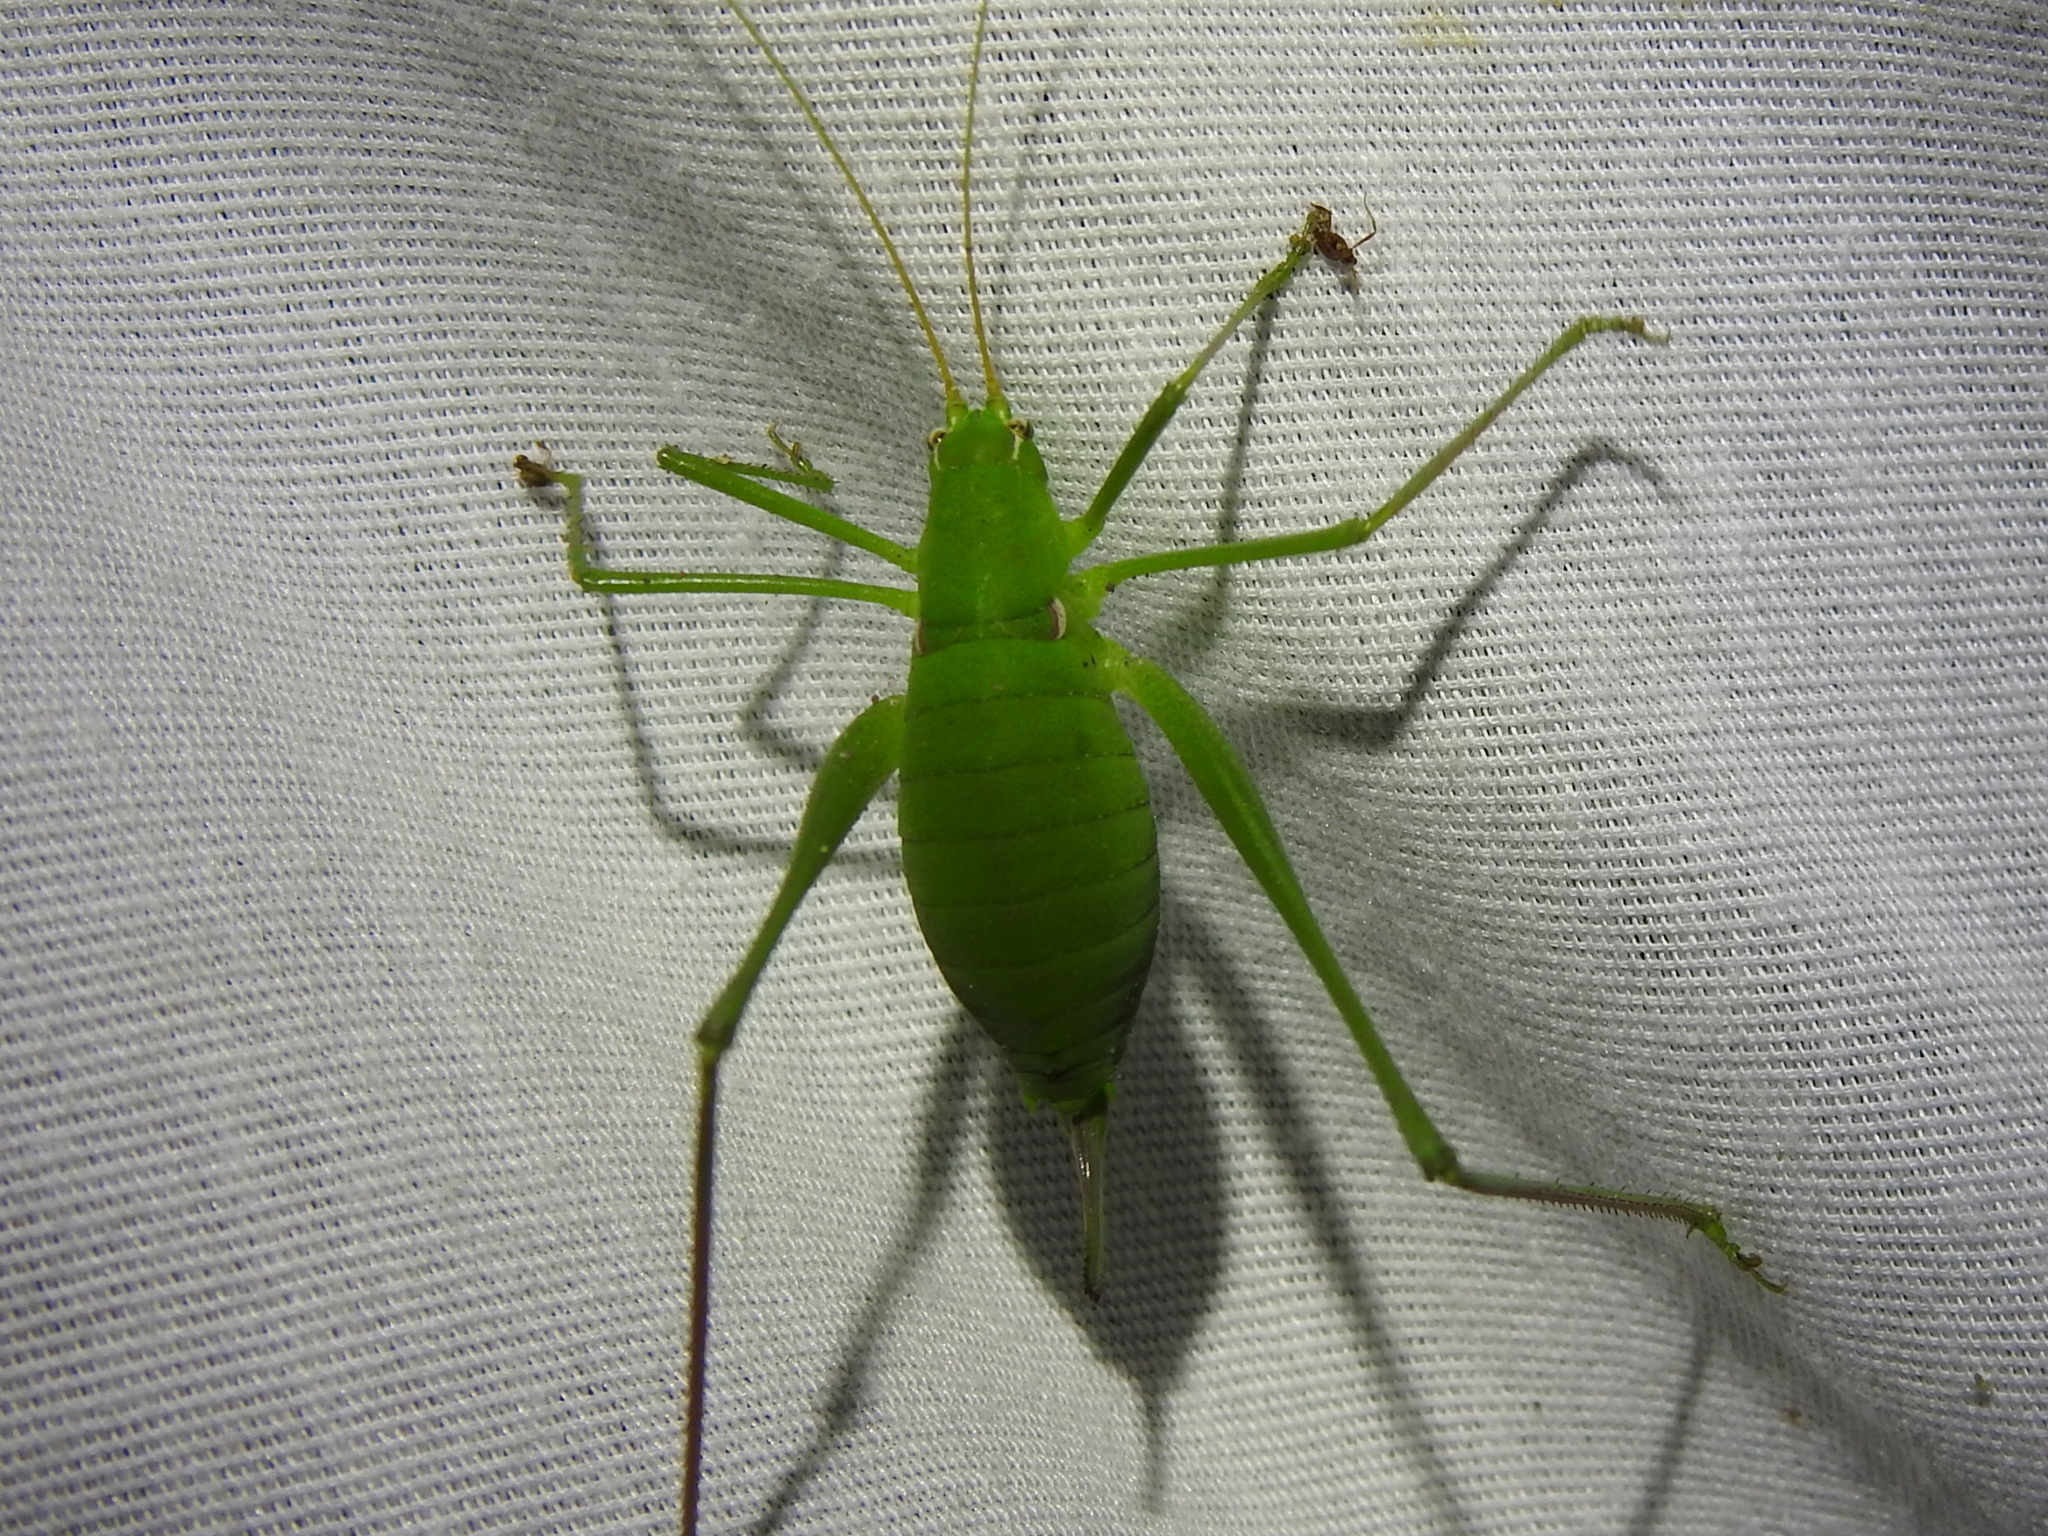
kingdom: Animalia
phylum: Arthropoda
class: Insecta
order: Orthoptera
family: Tettigoniidae
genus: Planipollex
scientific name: Planipollex pollicifer
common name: Thumb-bearing short-winged katydid
